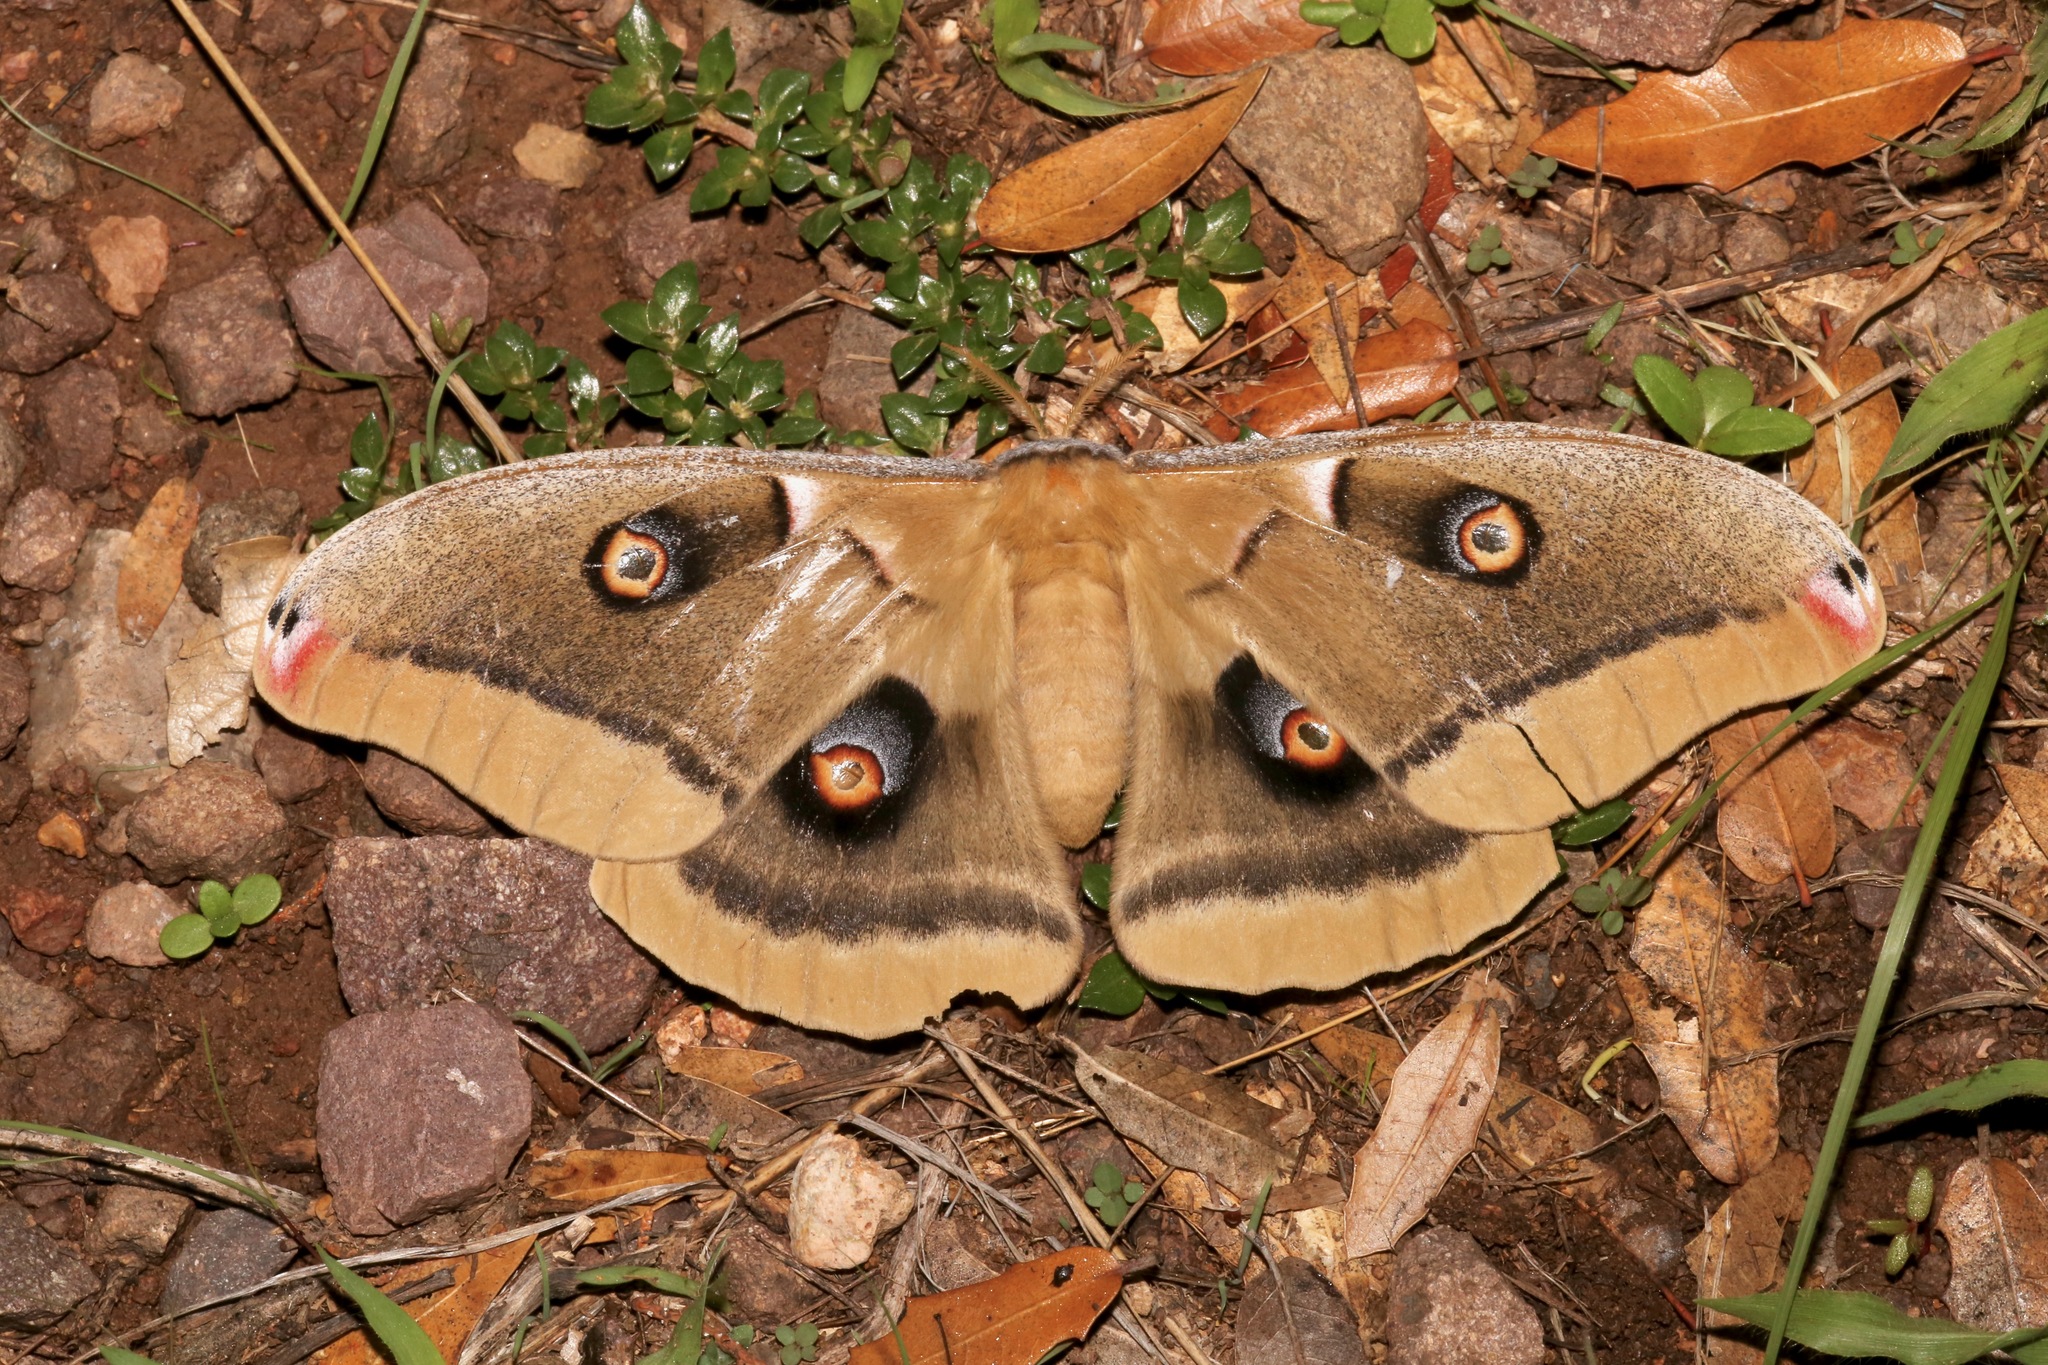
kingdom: Animalia
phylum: Arthropoda
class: Insecta
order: Lepidoptera
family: Saturniidae
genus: Antheraea
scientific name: Antheraea oculea
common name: Arizona polyphemus moth
